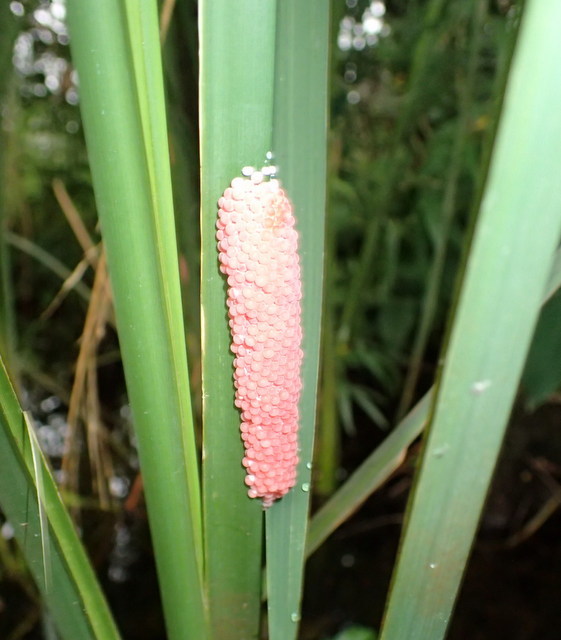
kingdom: Animalia
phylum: Mollusca
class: Gastropoda
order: Architaenioglossa
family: Ampullariidae
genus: Pomacea
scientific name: Pomacea maculata
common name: Giant applesnail
